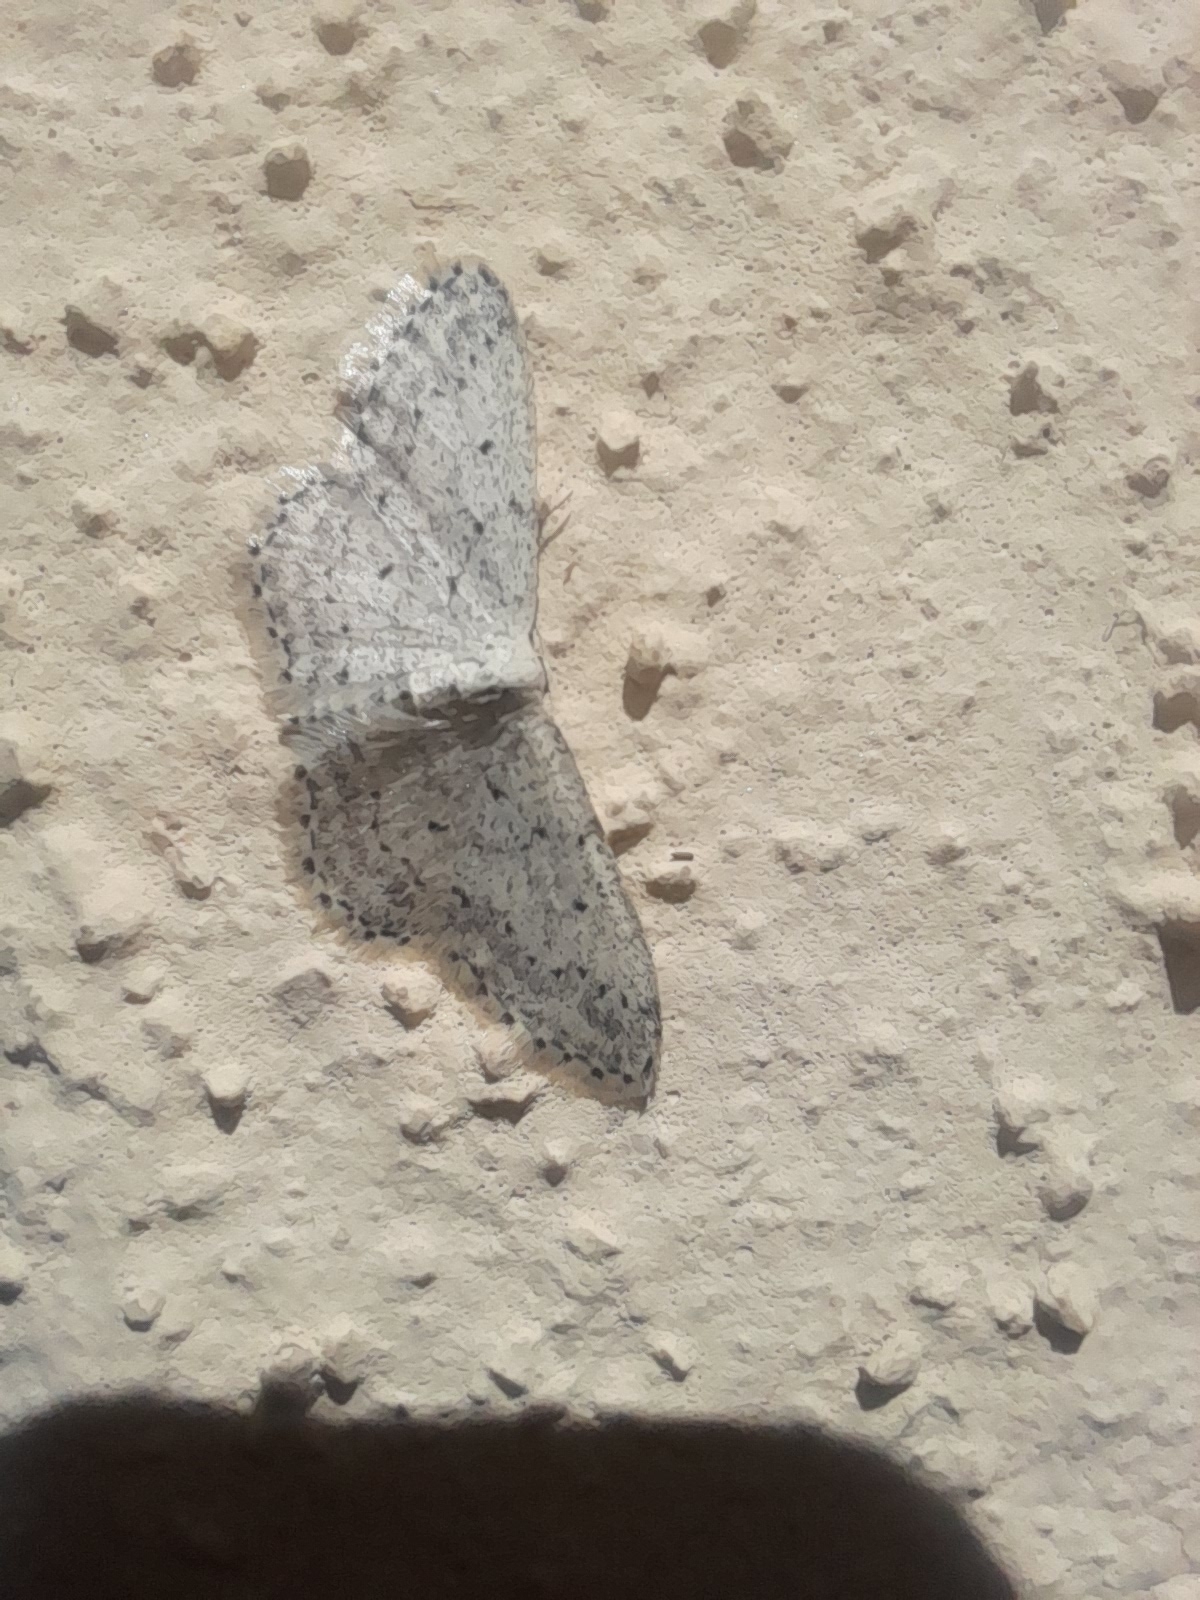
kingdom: Animalia
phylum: Arthropoda
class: Insecta
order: Lepidoptera
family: Geometridae
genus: Idaea
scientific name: Idaea seriata
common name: Small dusty wave
